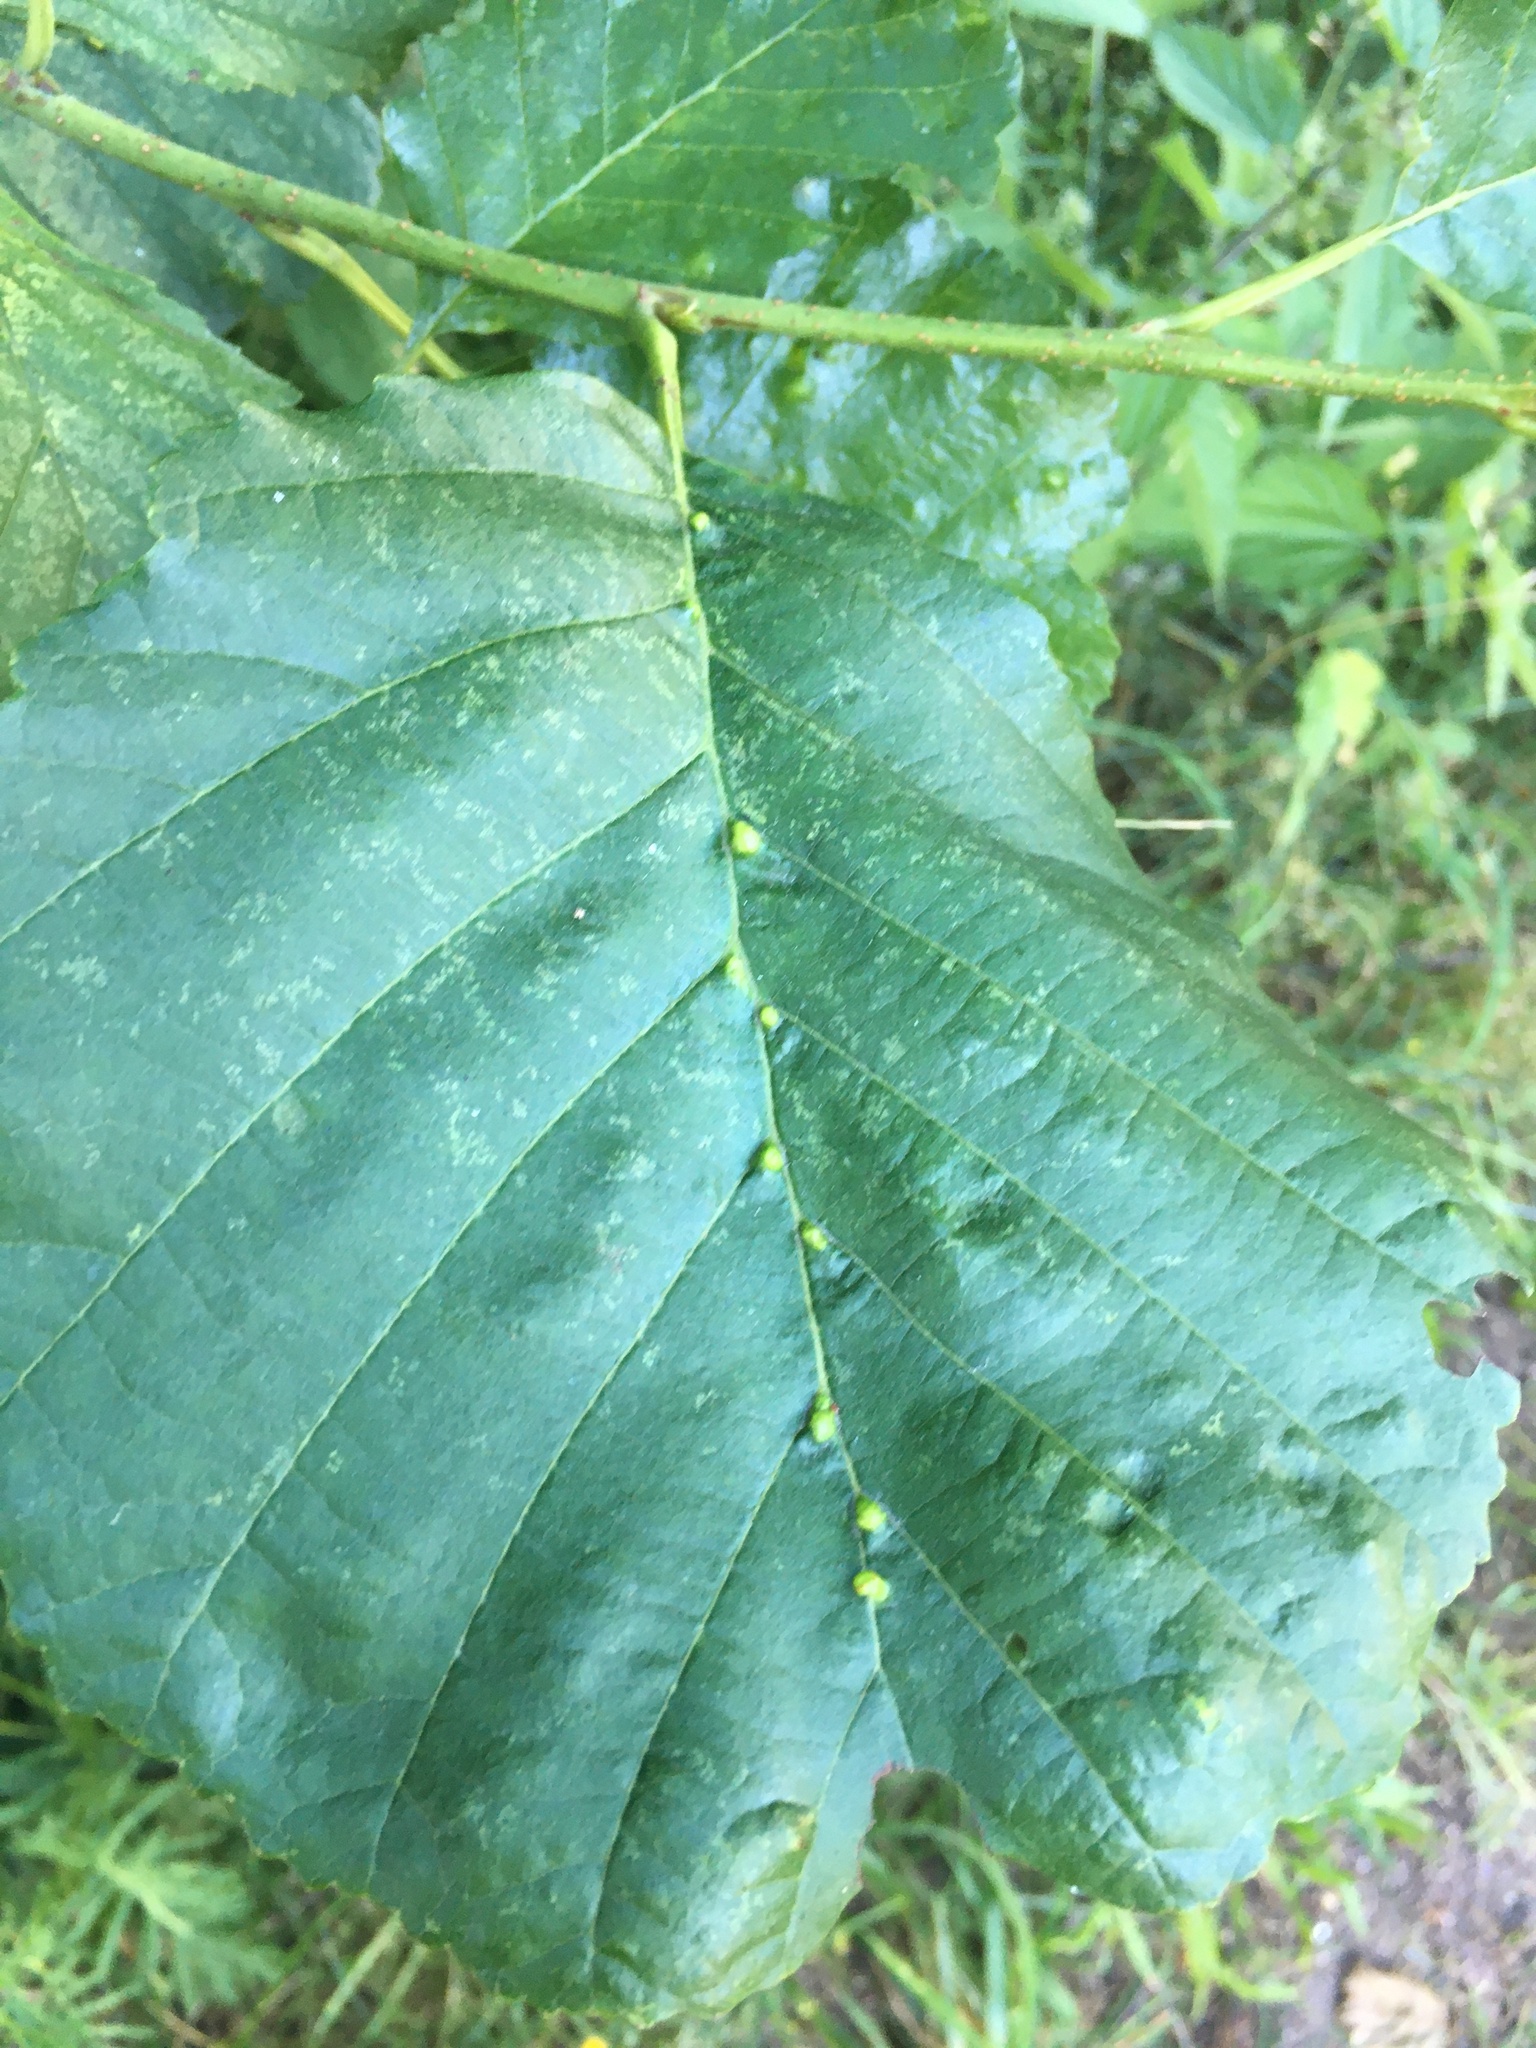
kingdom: Plantae
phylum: Tracheophyta
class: Magnoliopsida
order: Fagales
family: Betulaceae
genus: Alnus
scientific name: Alnus glutinosa
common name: Black alder
